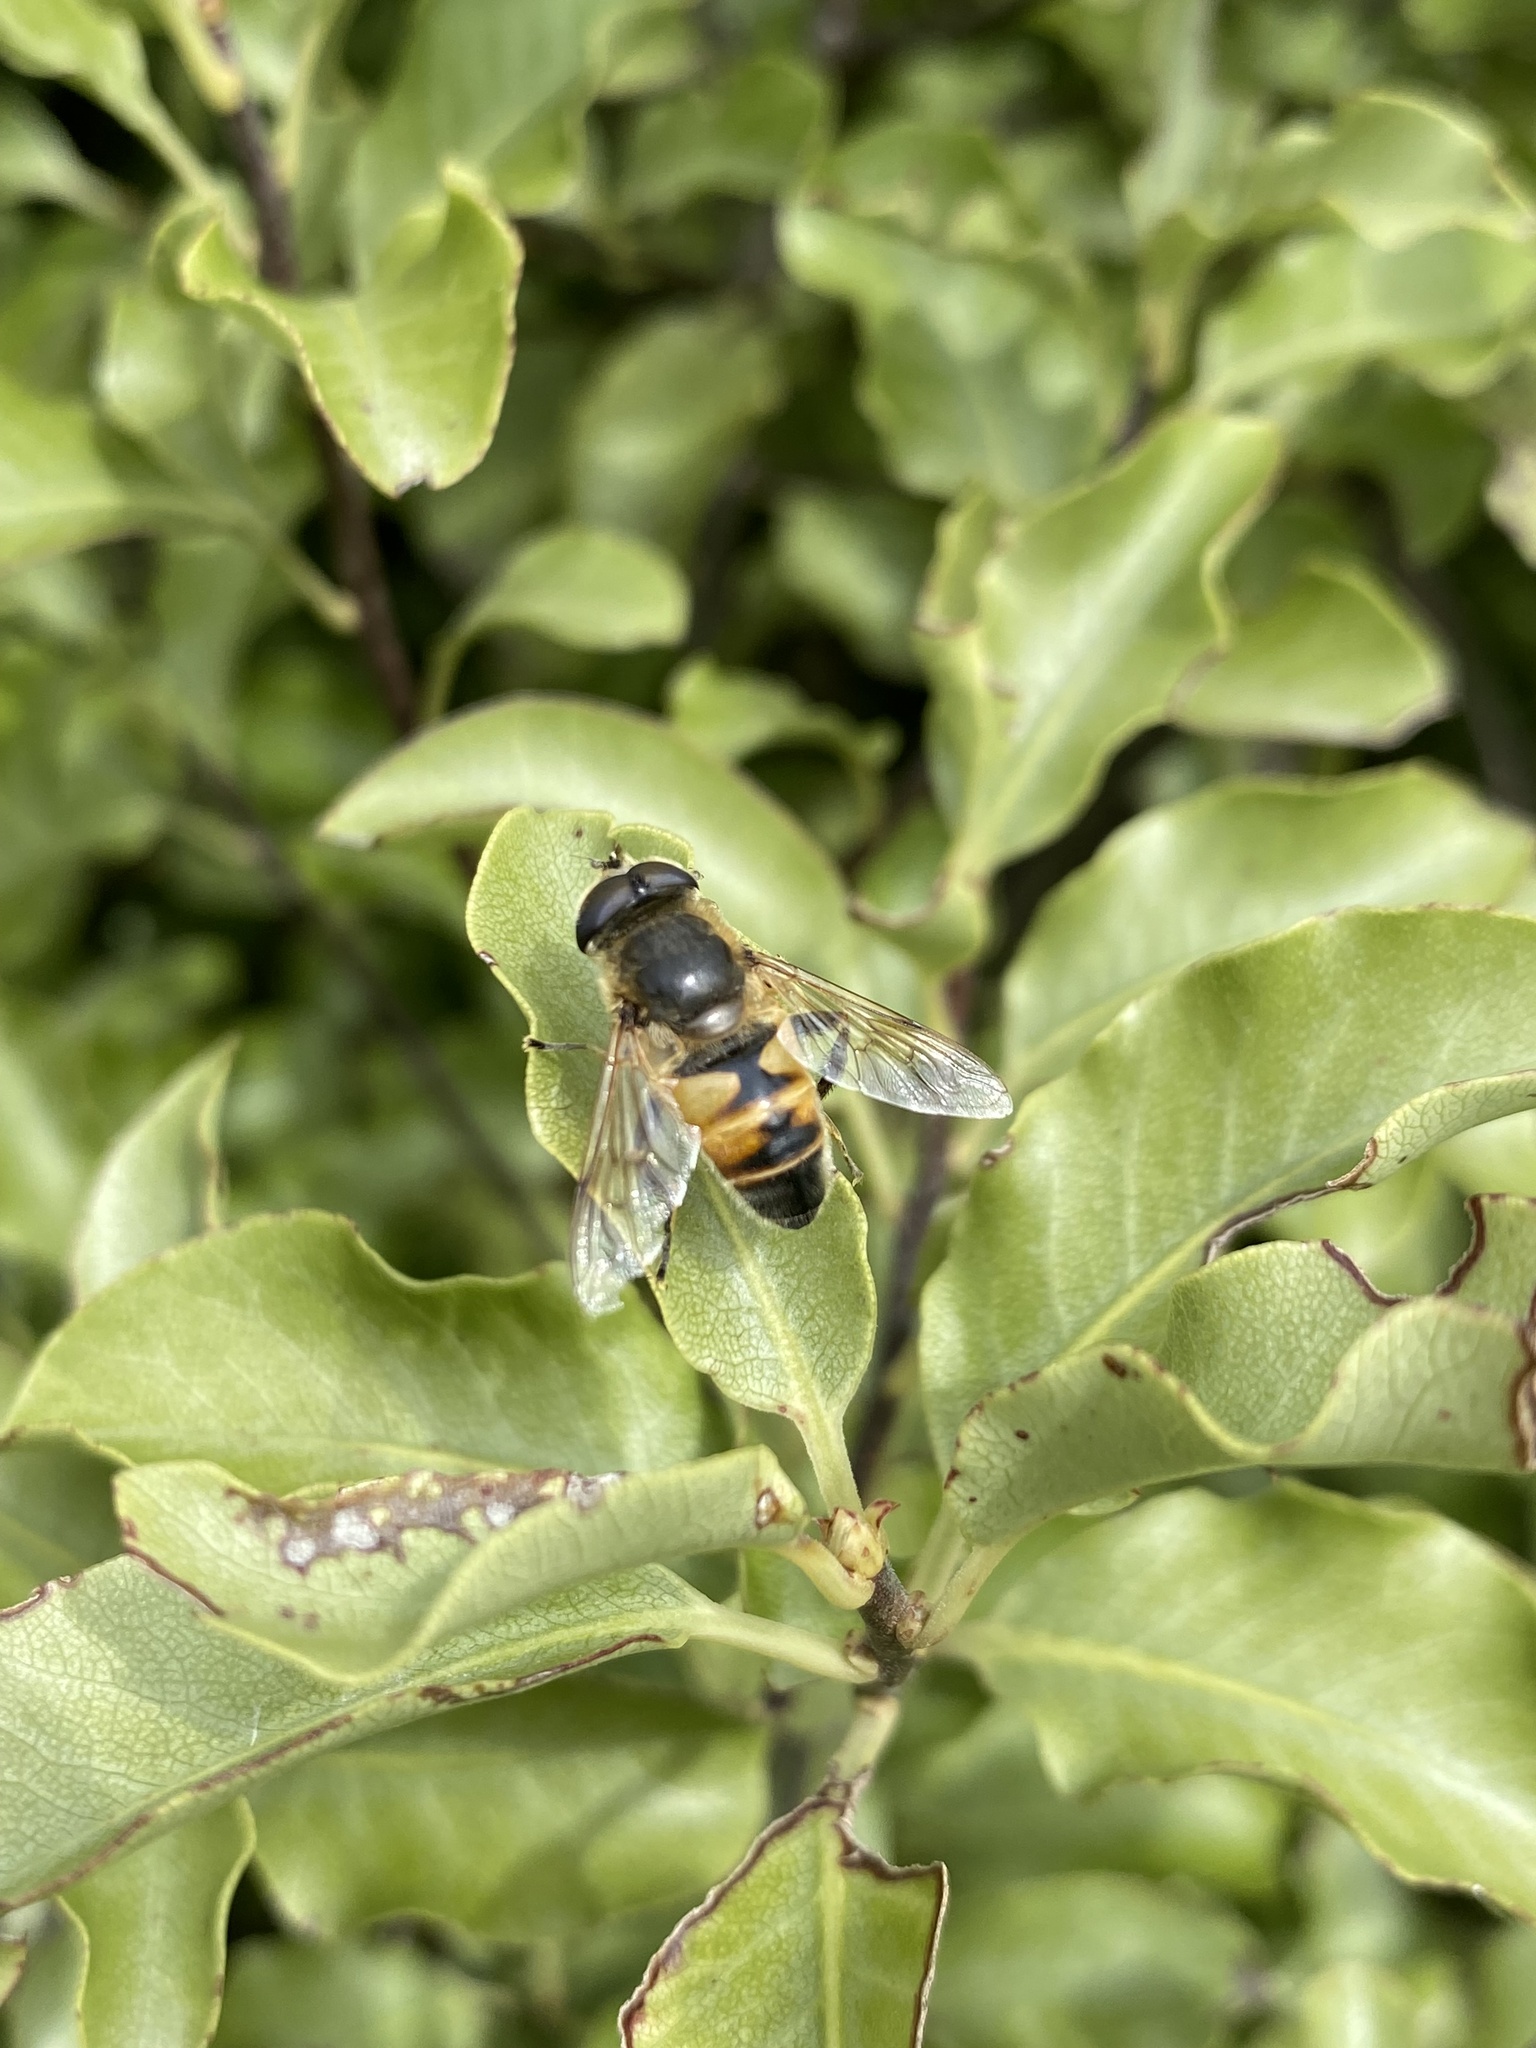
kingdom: Animalia
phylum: Arthropoda
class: Insecta
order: Diptera
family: Syrphidae
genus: Eristalis
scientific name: Eristalis tenax
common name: Drone fly
